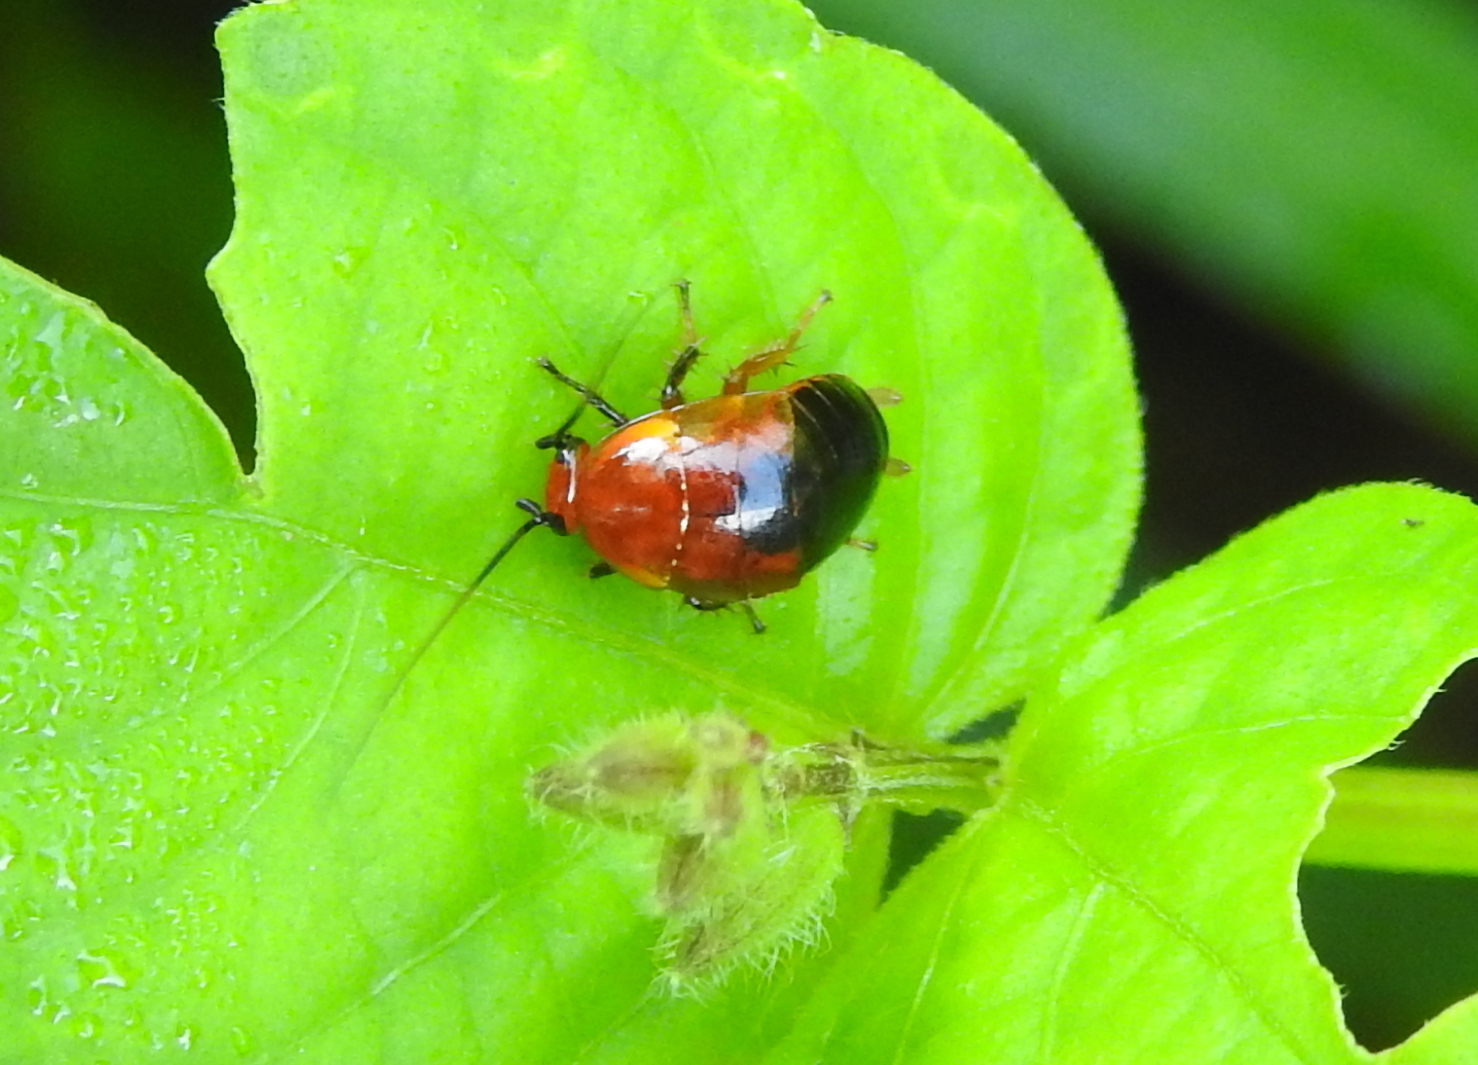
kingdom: Animalia
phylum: Arthropoda
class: Insecta
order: Blattodea
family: Ectobiidae
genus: Hemithyrsocera
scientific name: Hemithyrsocera palliata
